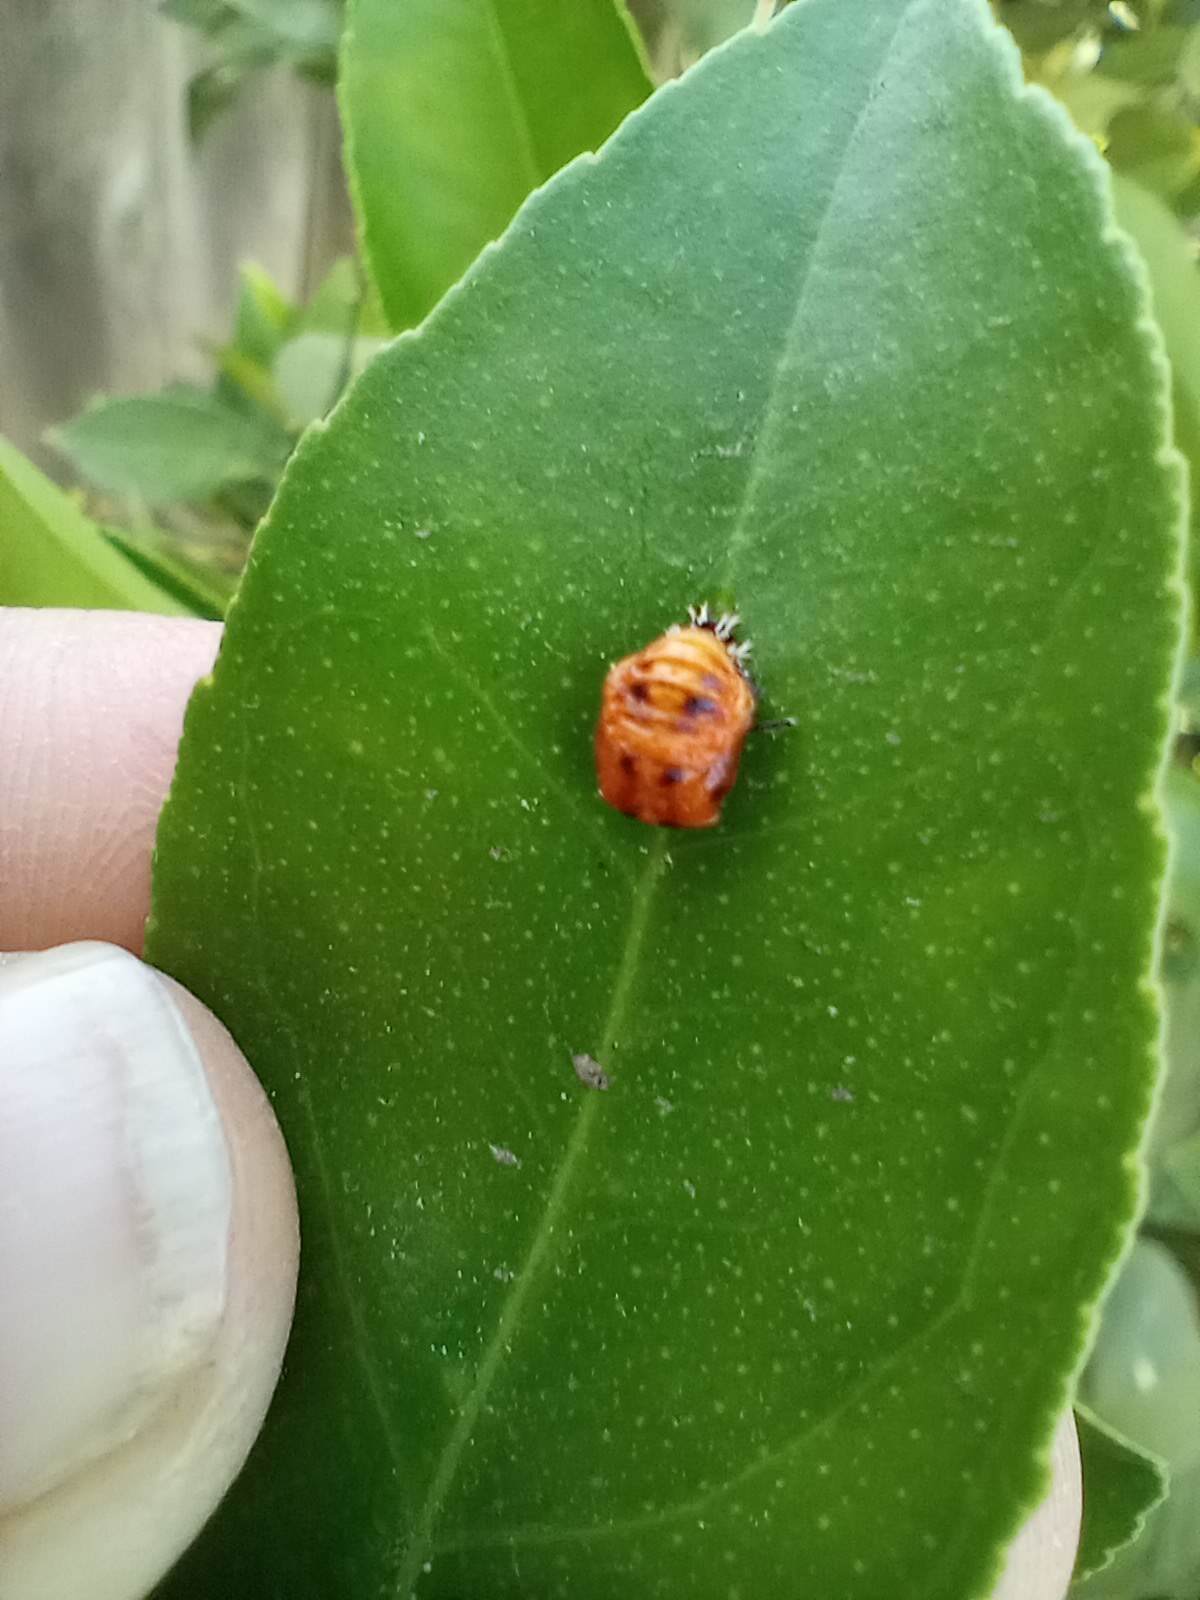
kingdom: Animalia
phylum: Arthropoda
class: Insecta
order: Coleoptera
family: Coccinellidae
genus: Harmonia
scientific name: Harmonia axyridis
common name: Harlequin ladybird
